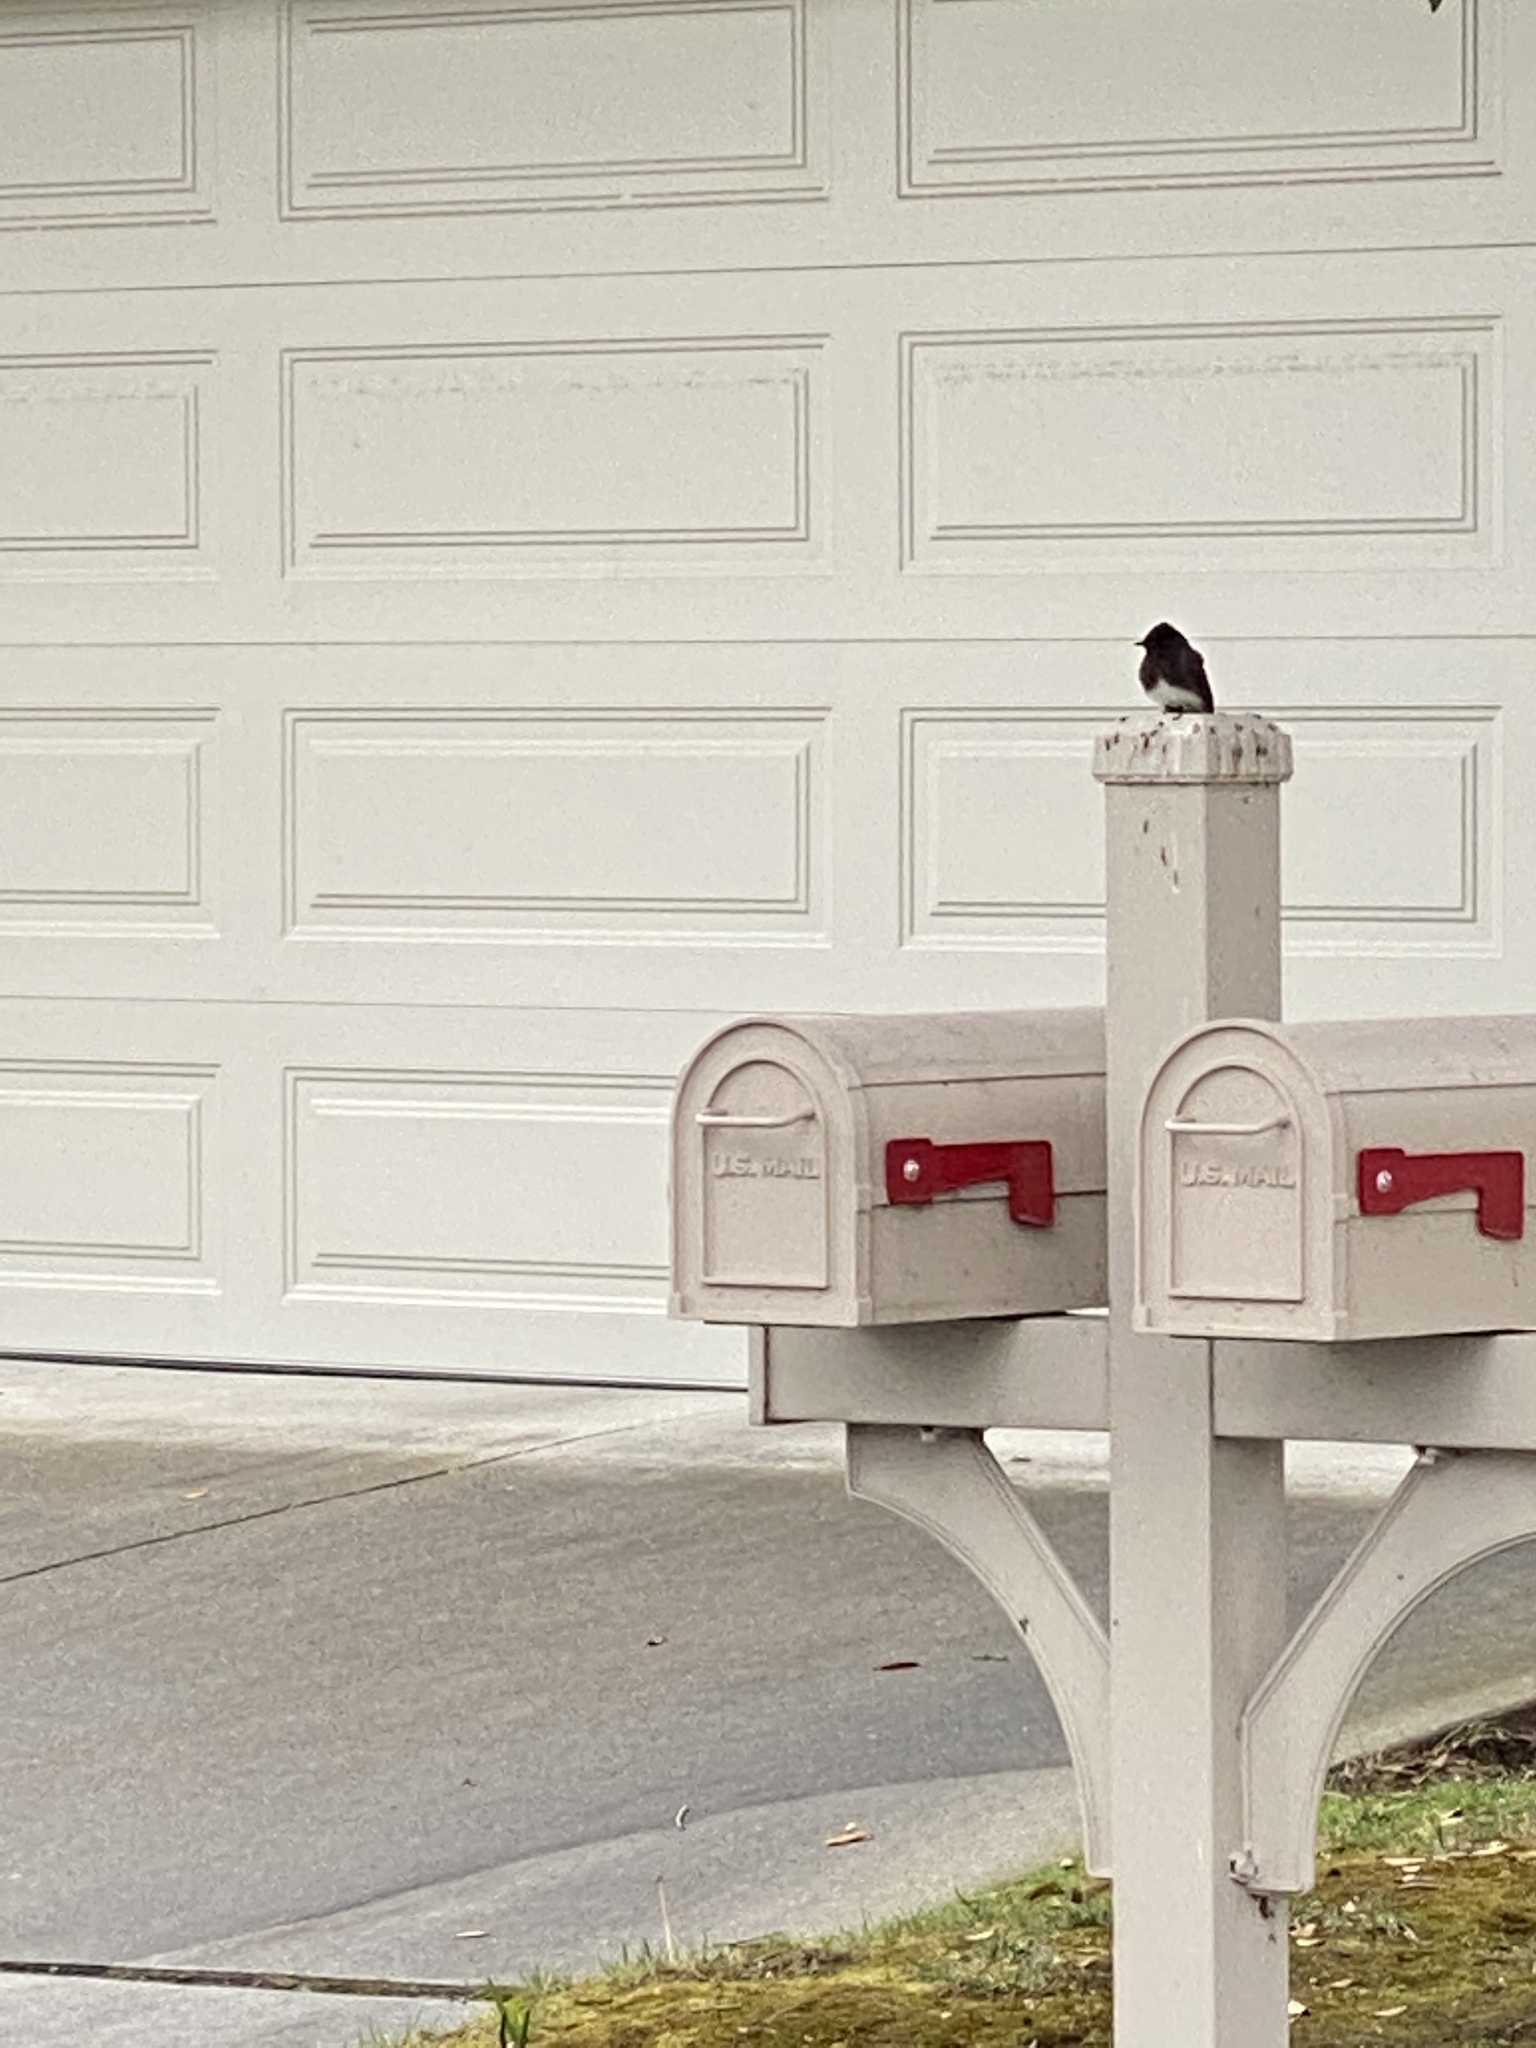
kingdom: Animalia
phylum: Chordata
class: Aves
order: Passeriformes
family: Tyrannidae
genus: Sayornis
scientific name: Sayornis nigricans
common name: Black phoebe
